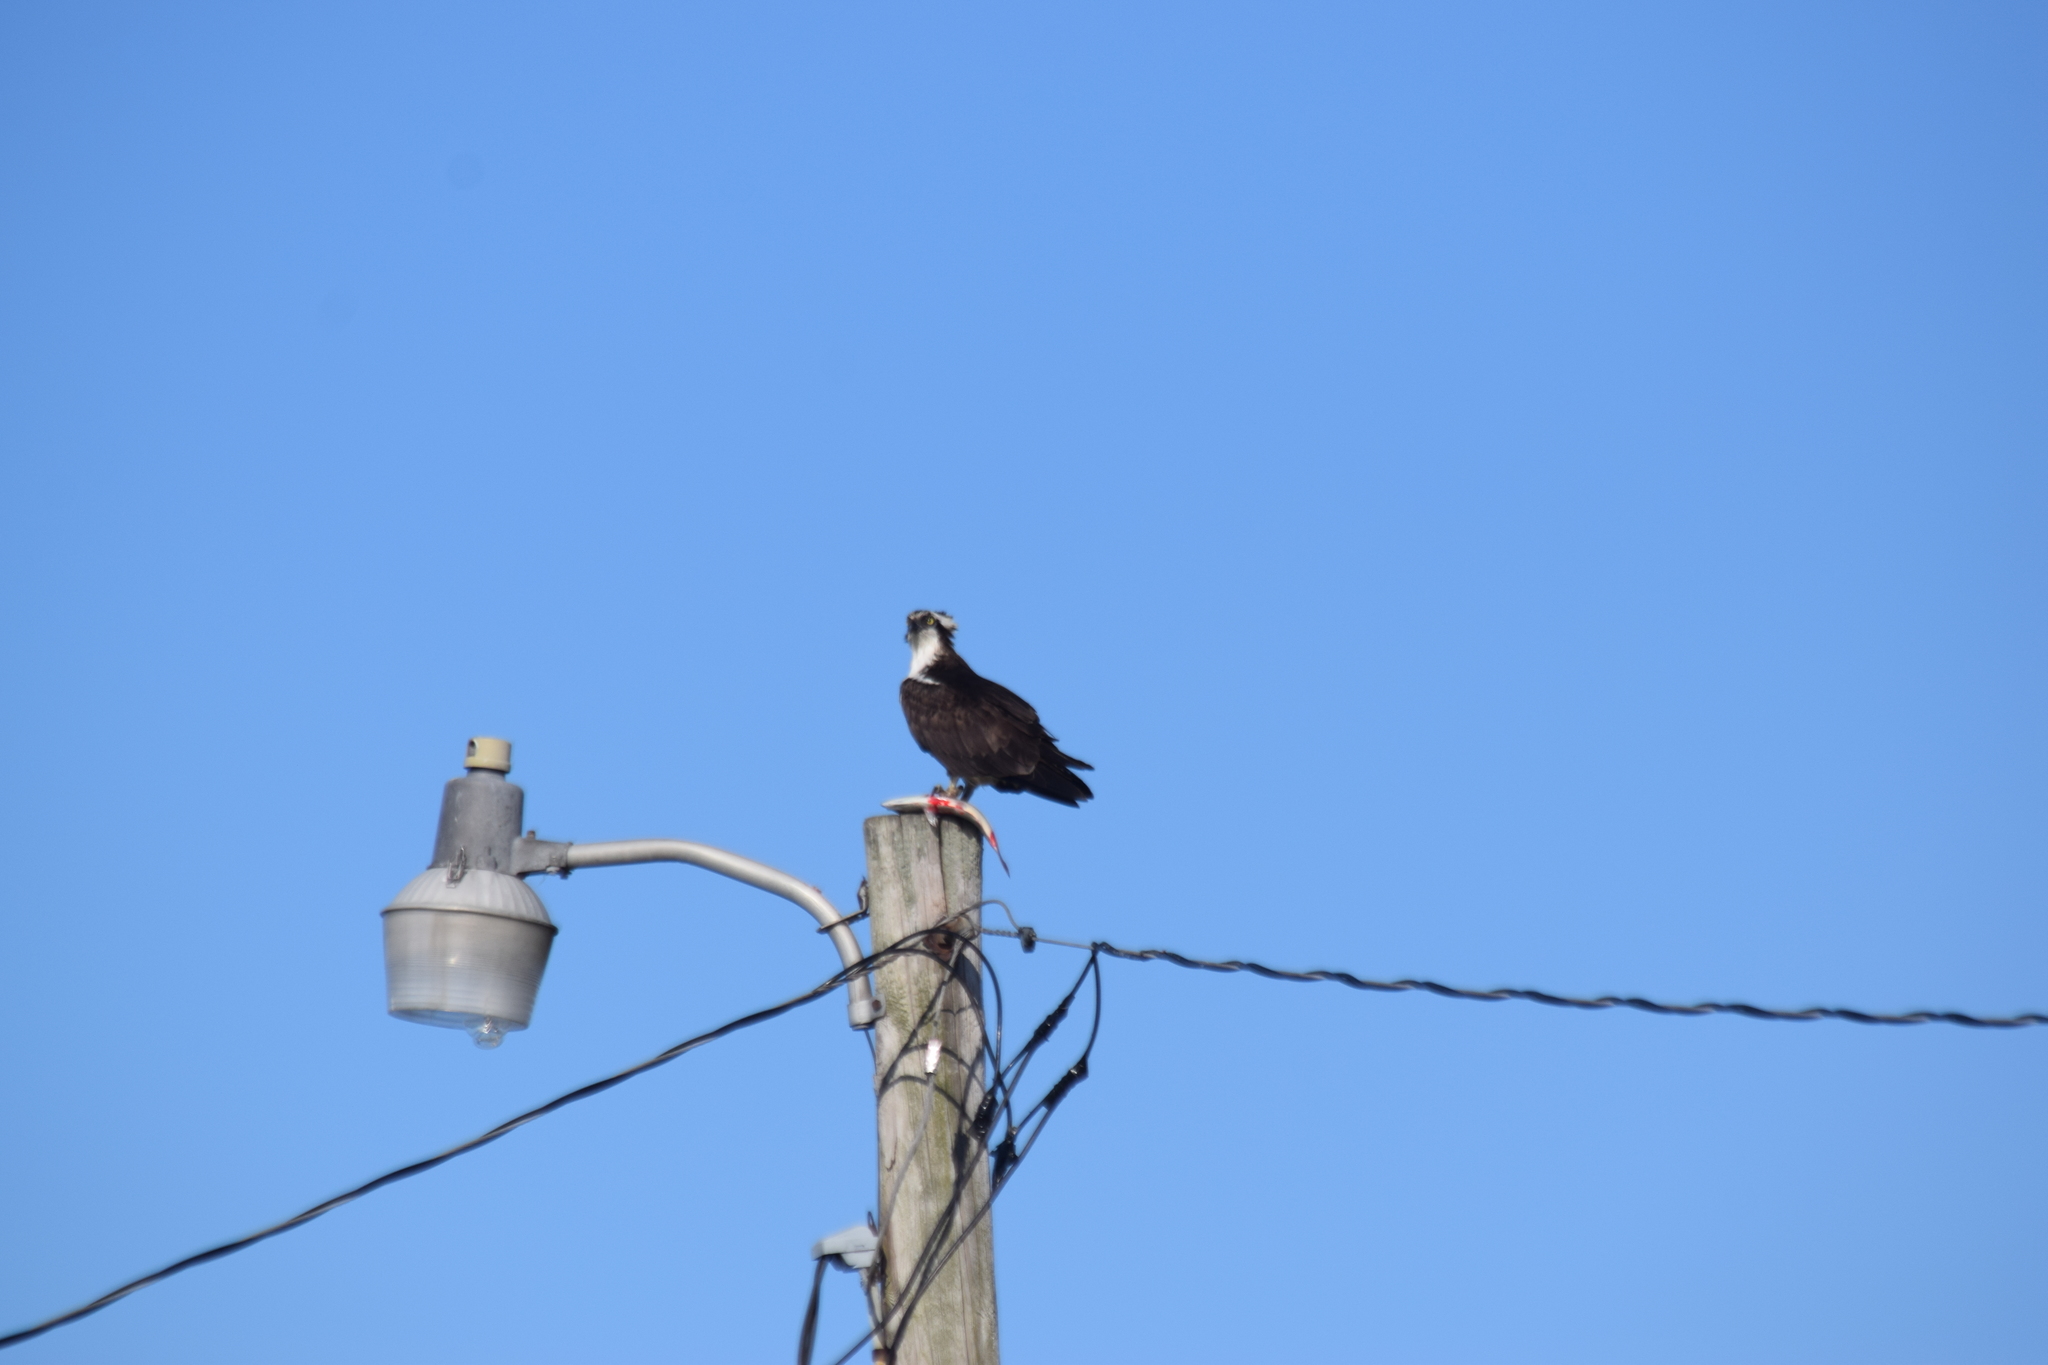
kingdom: Animalia
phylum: Chordata
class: Aves
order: Accipitriformes
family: Pandionidae
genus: Pandion
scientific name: Pandion haliaetus
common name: Osprey
